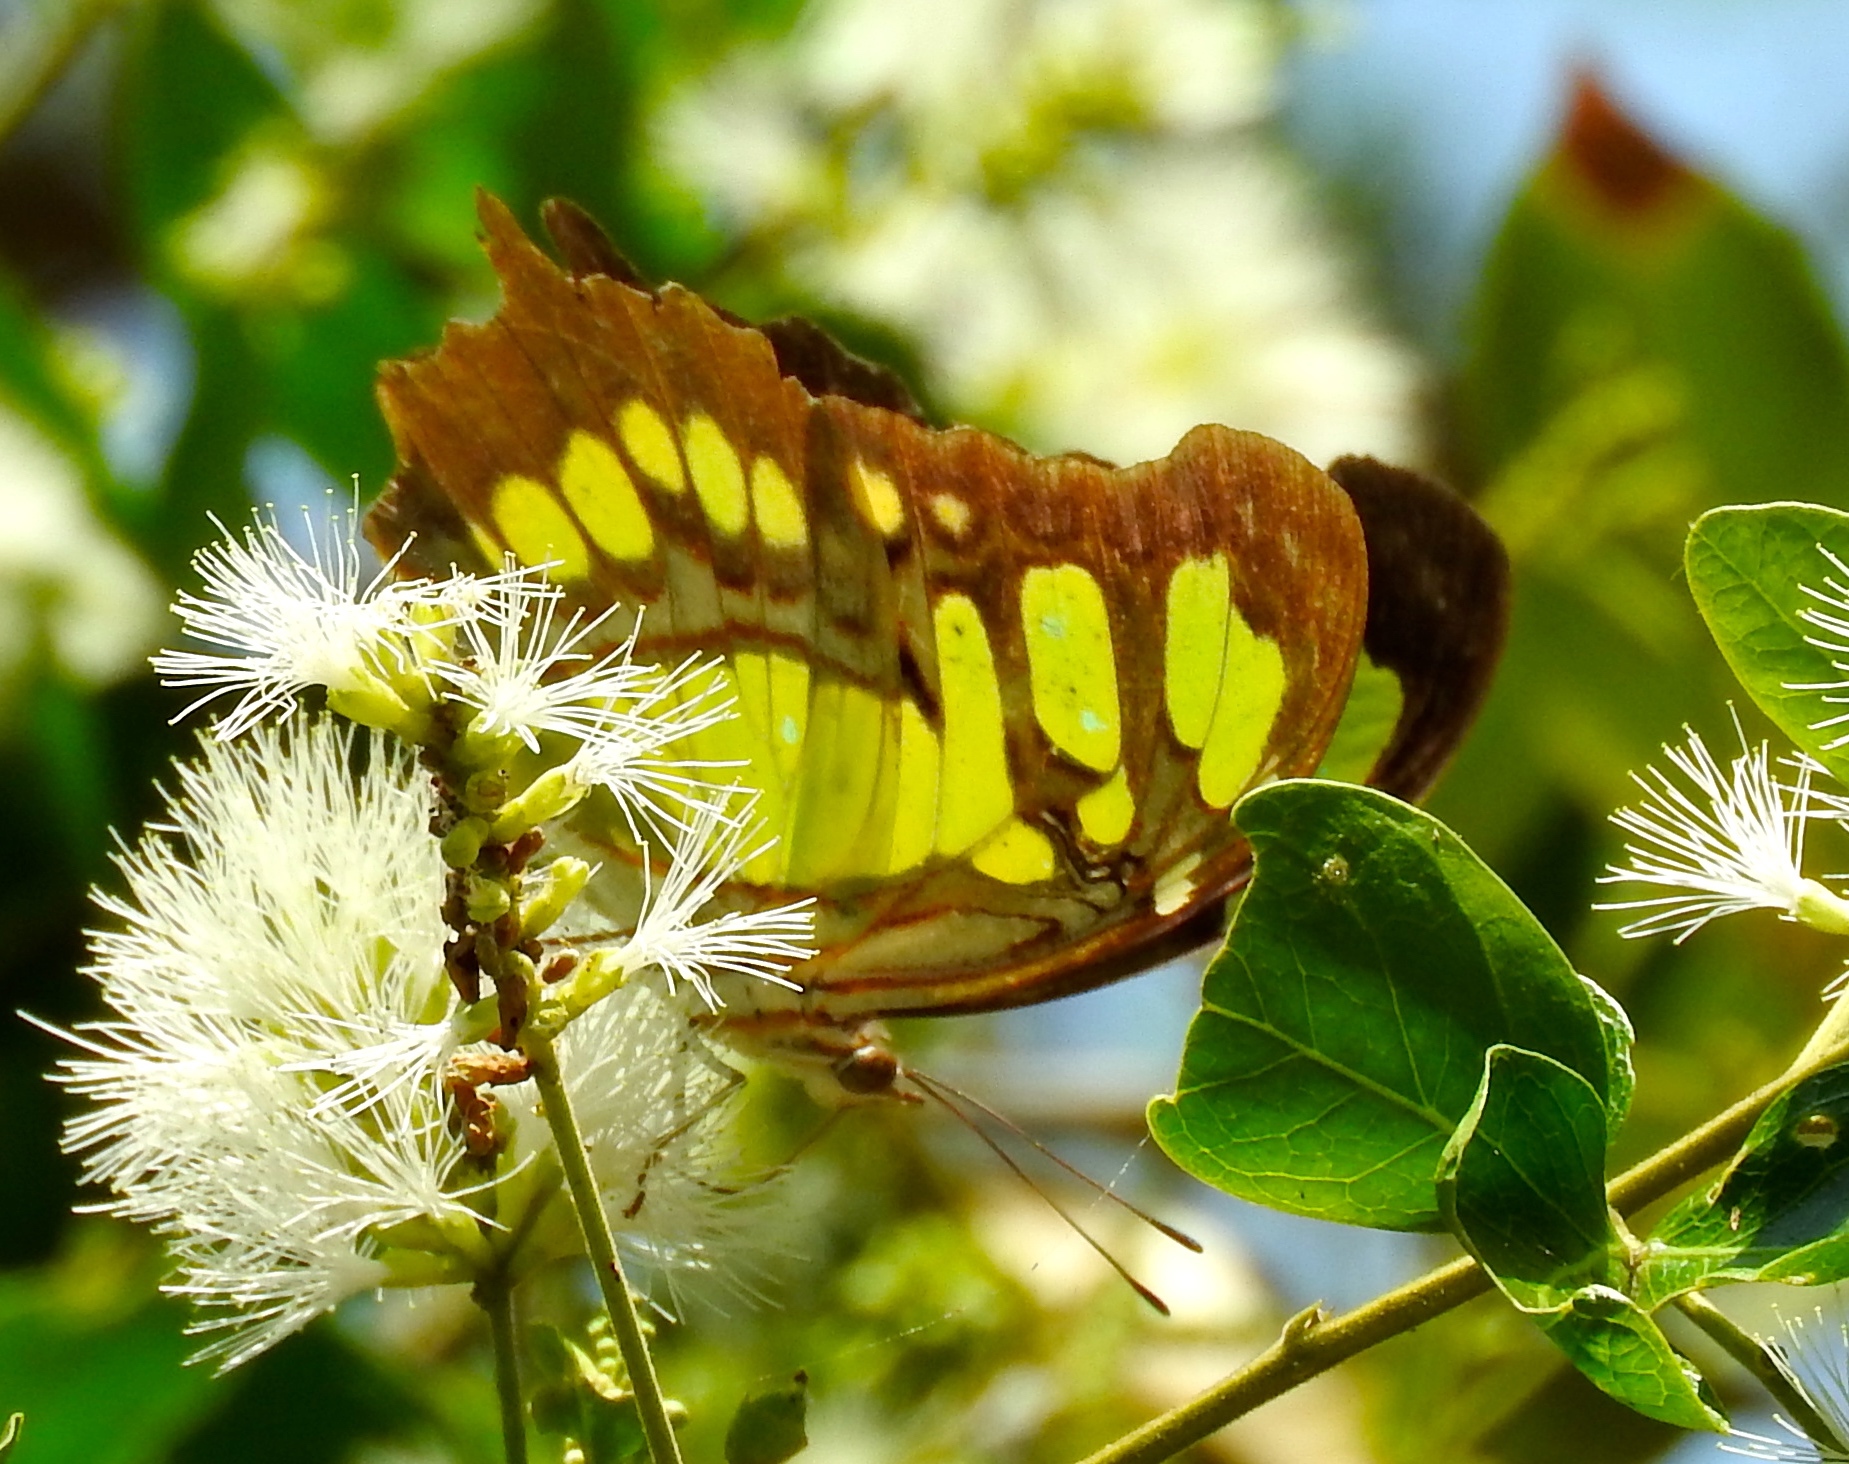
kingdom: Animalia
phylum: Arthropoda
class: Insecta
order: Lepidoptera
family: Nymphalidae
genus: Siproeta
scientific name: Siproeta stelenes
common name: Malachite
